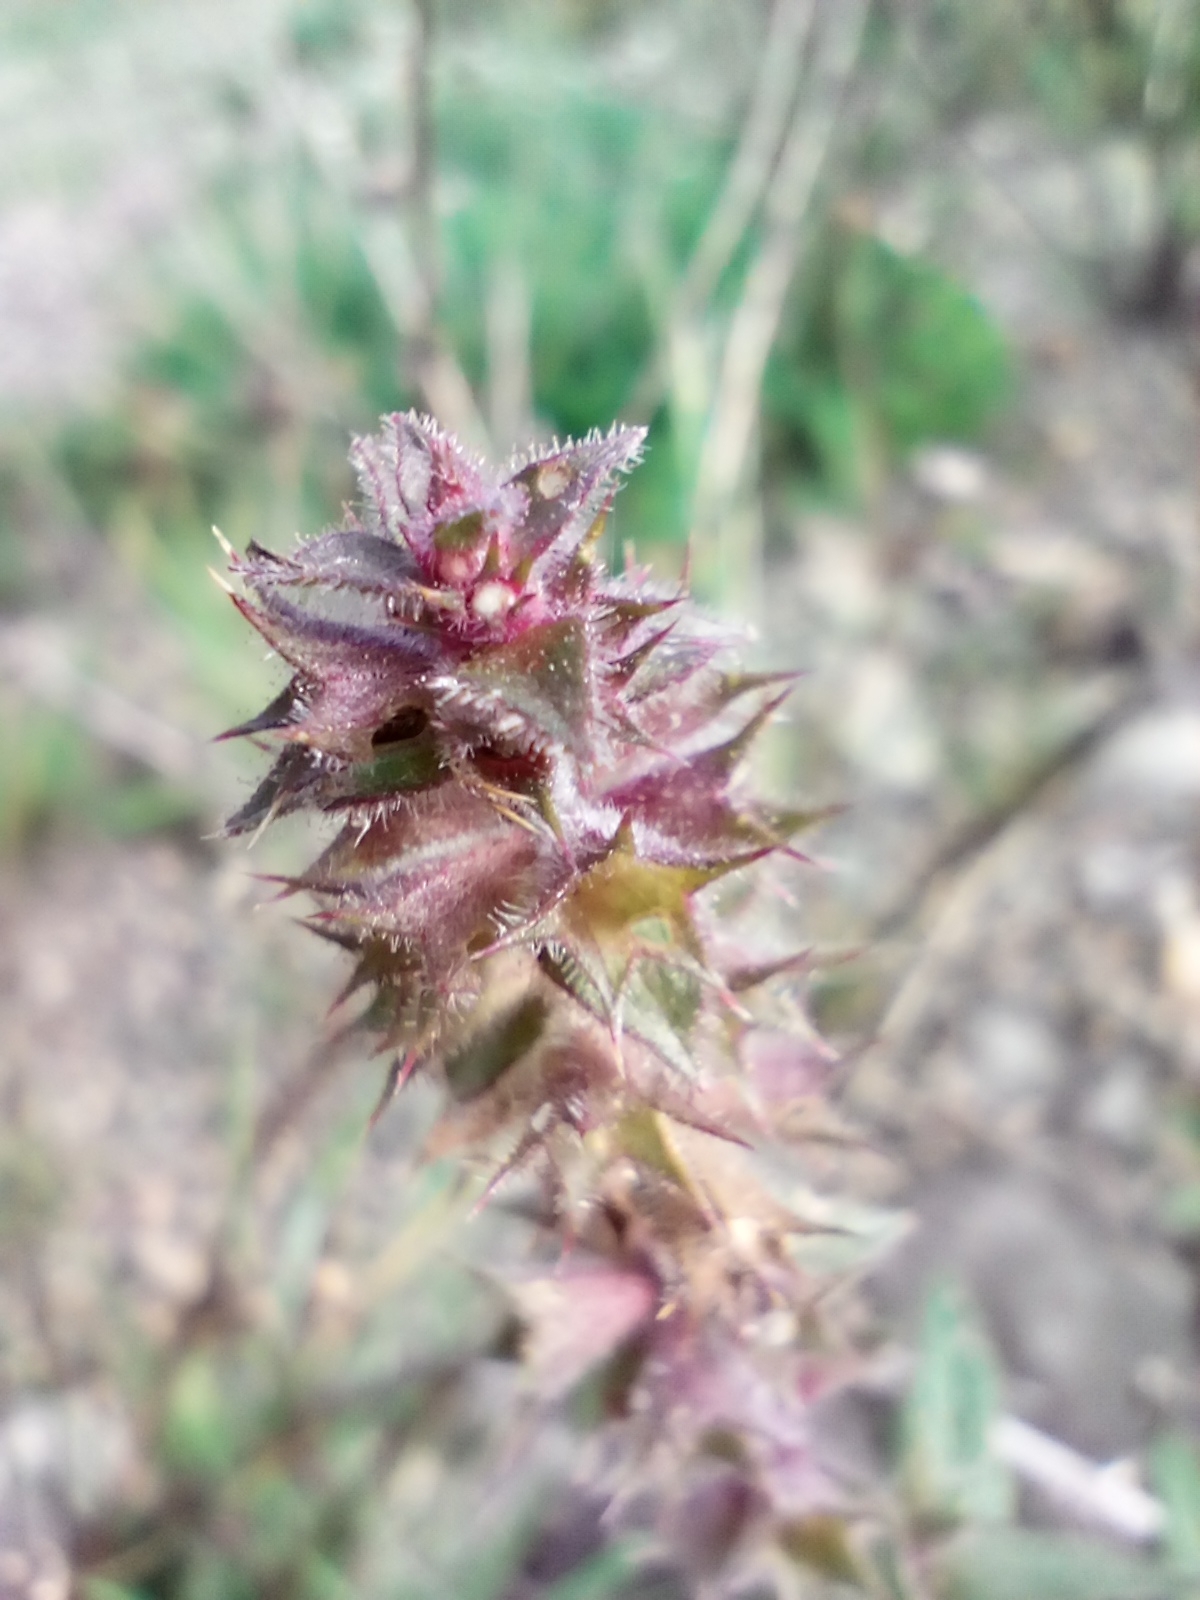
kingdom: Plantae
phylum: Tracheophyta
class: Magnoliopsida
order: Lamiales
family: Lamiaceae
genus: Stachys
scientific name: Stachys palustris
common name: Marsh woundwort
